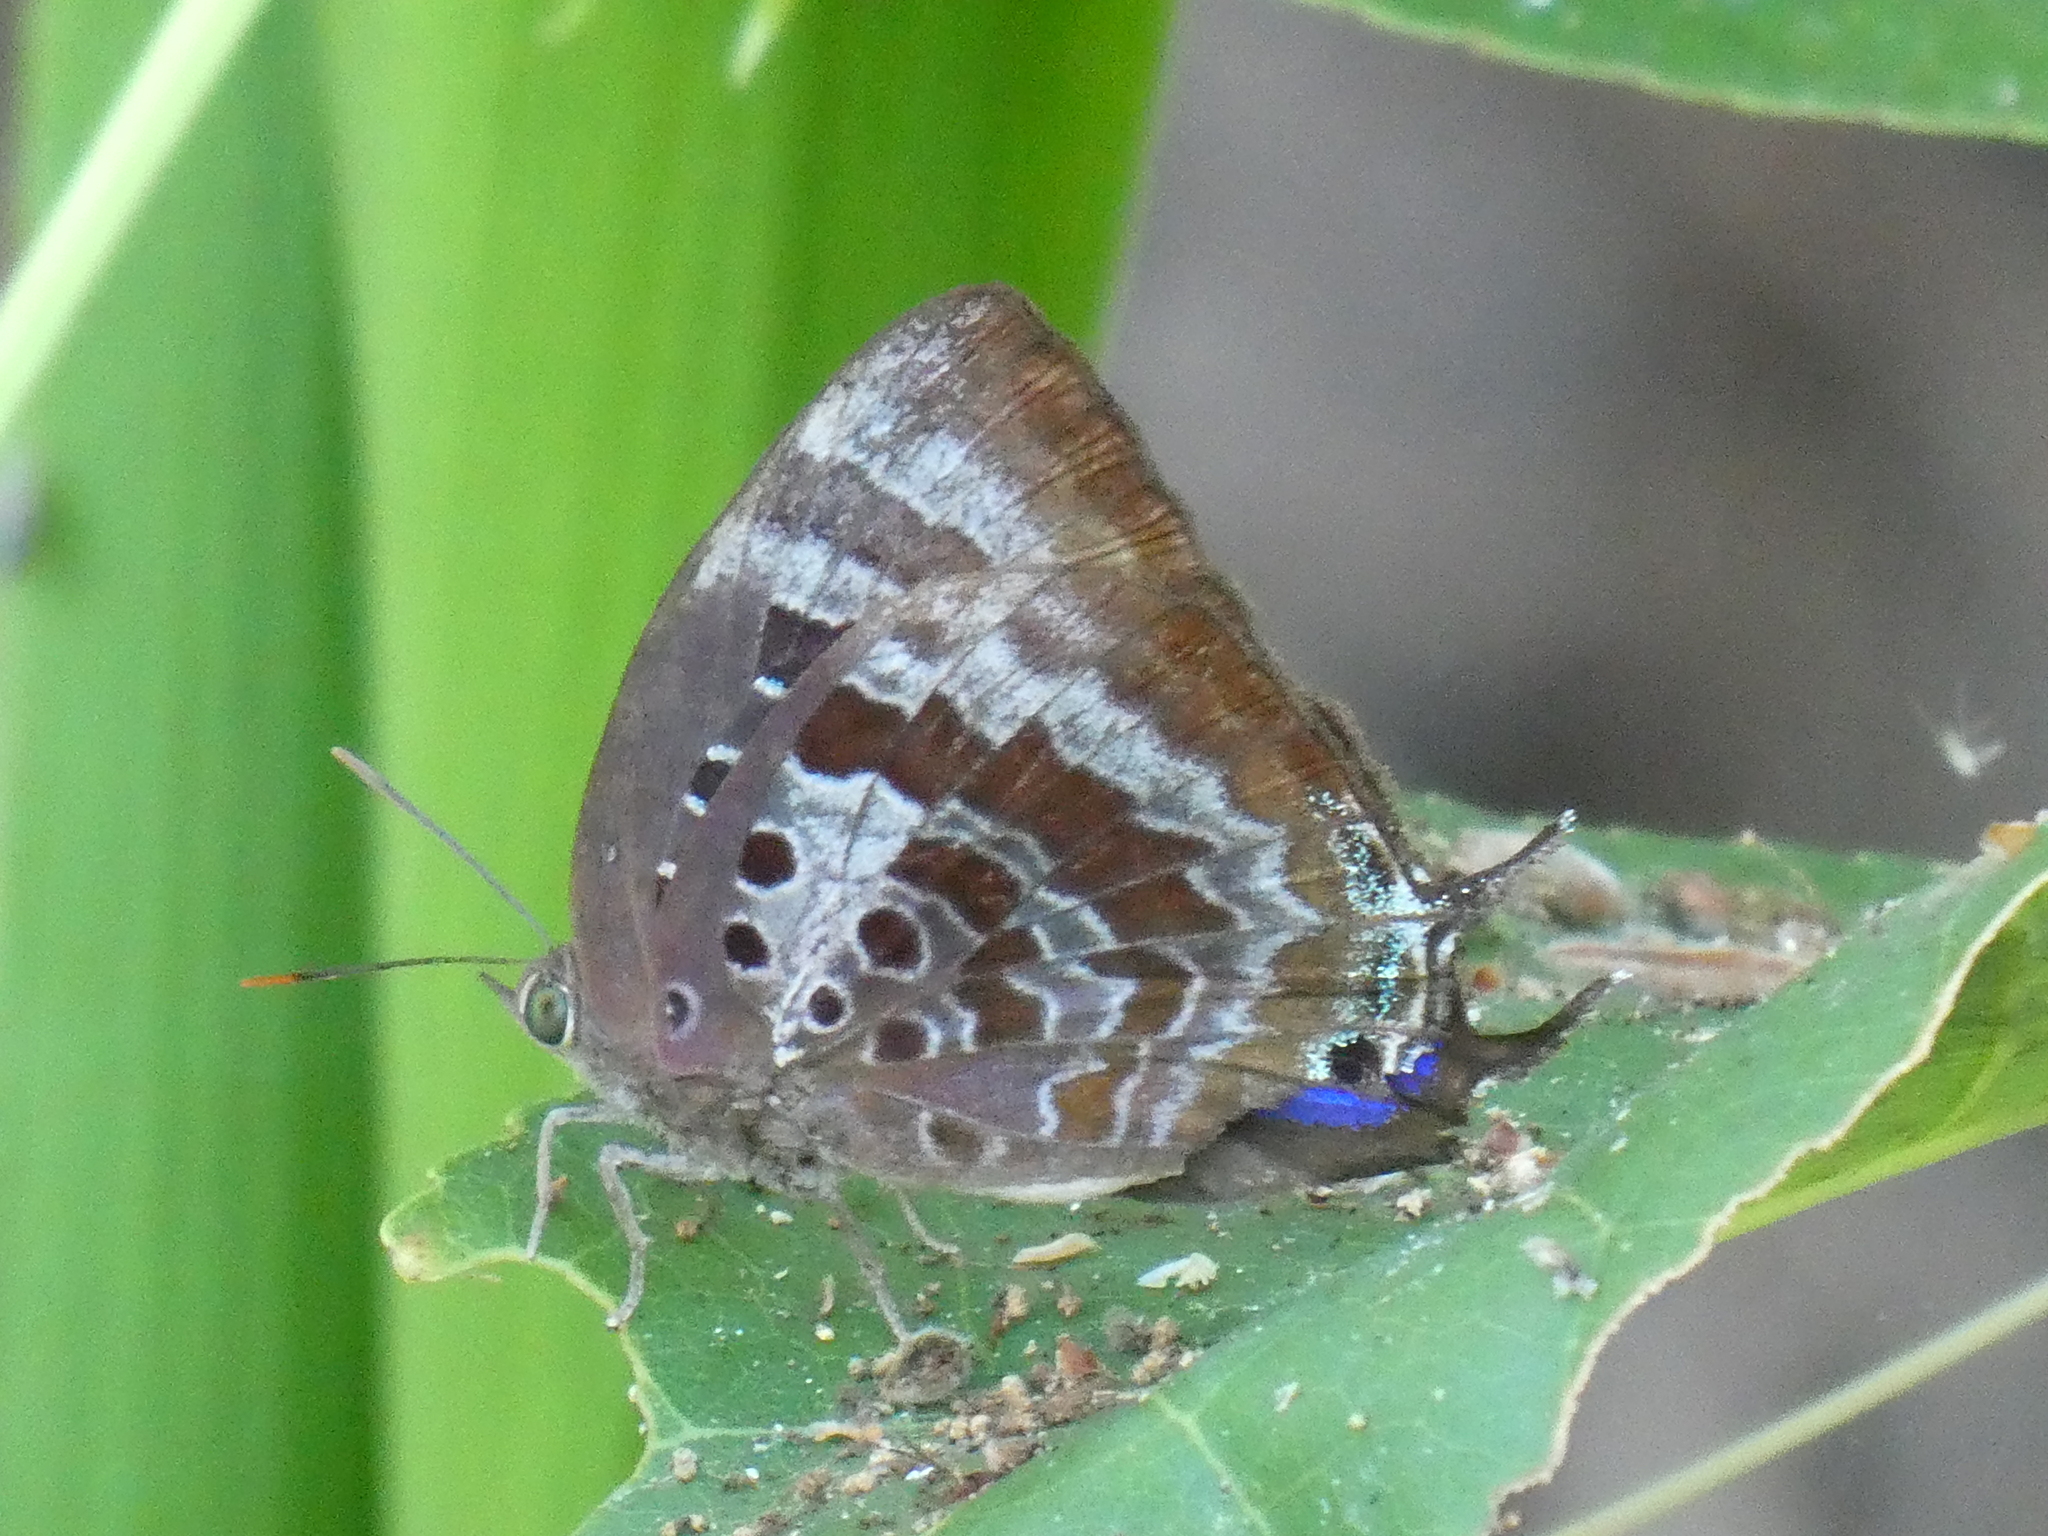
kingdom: Animalia
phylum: Arthropoda
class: Insecta
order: Lepidoptera
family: Lycaenidae
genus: Arhopala
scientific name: Arhopala micale
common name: Shining oak-blue
